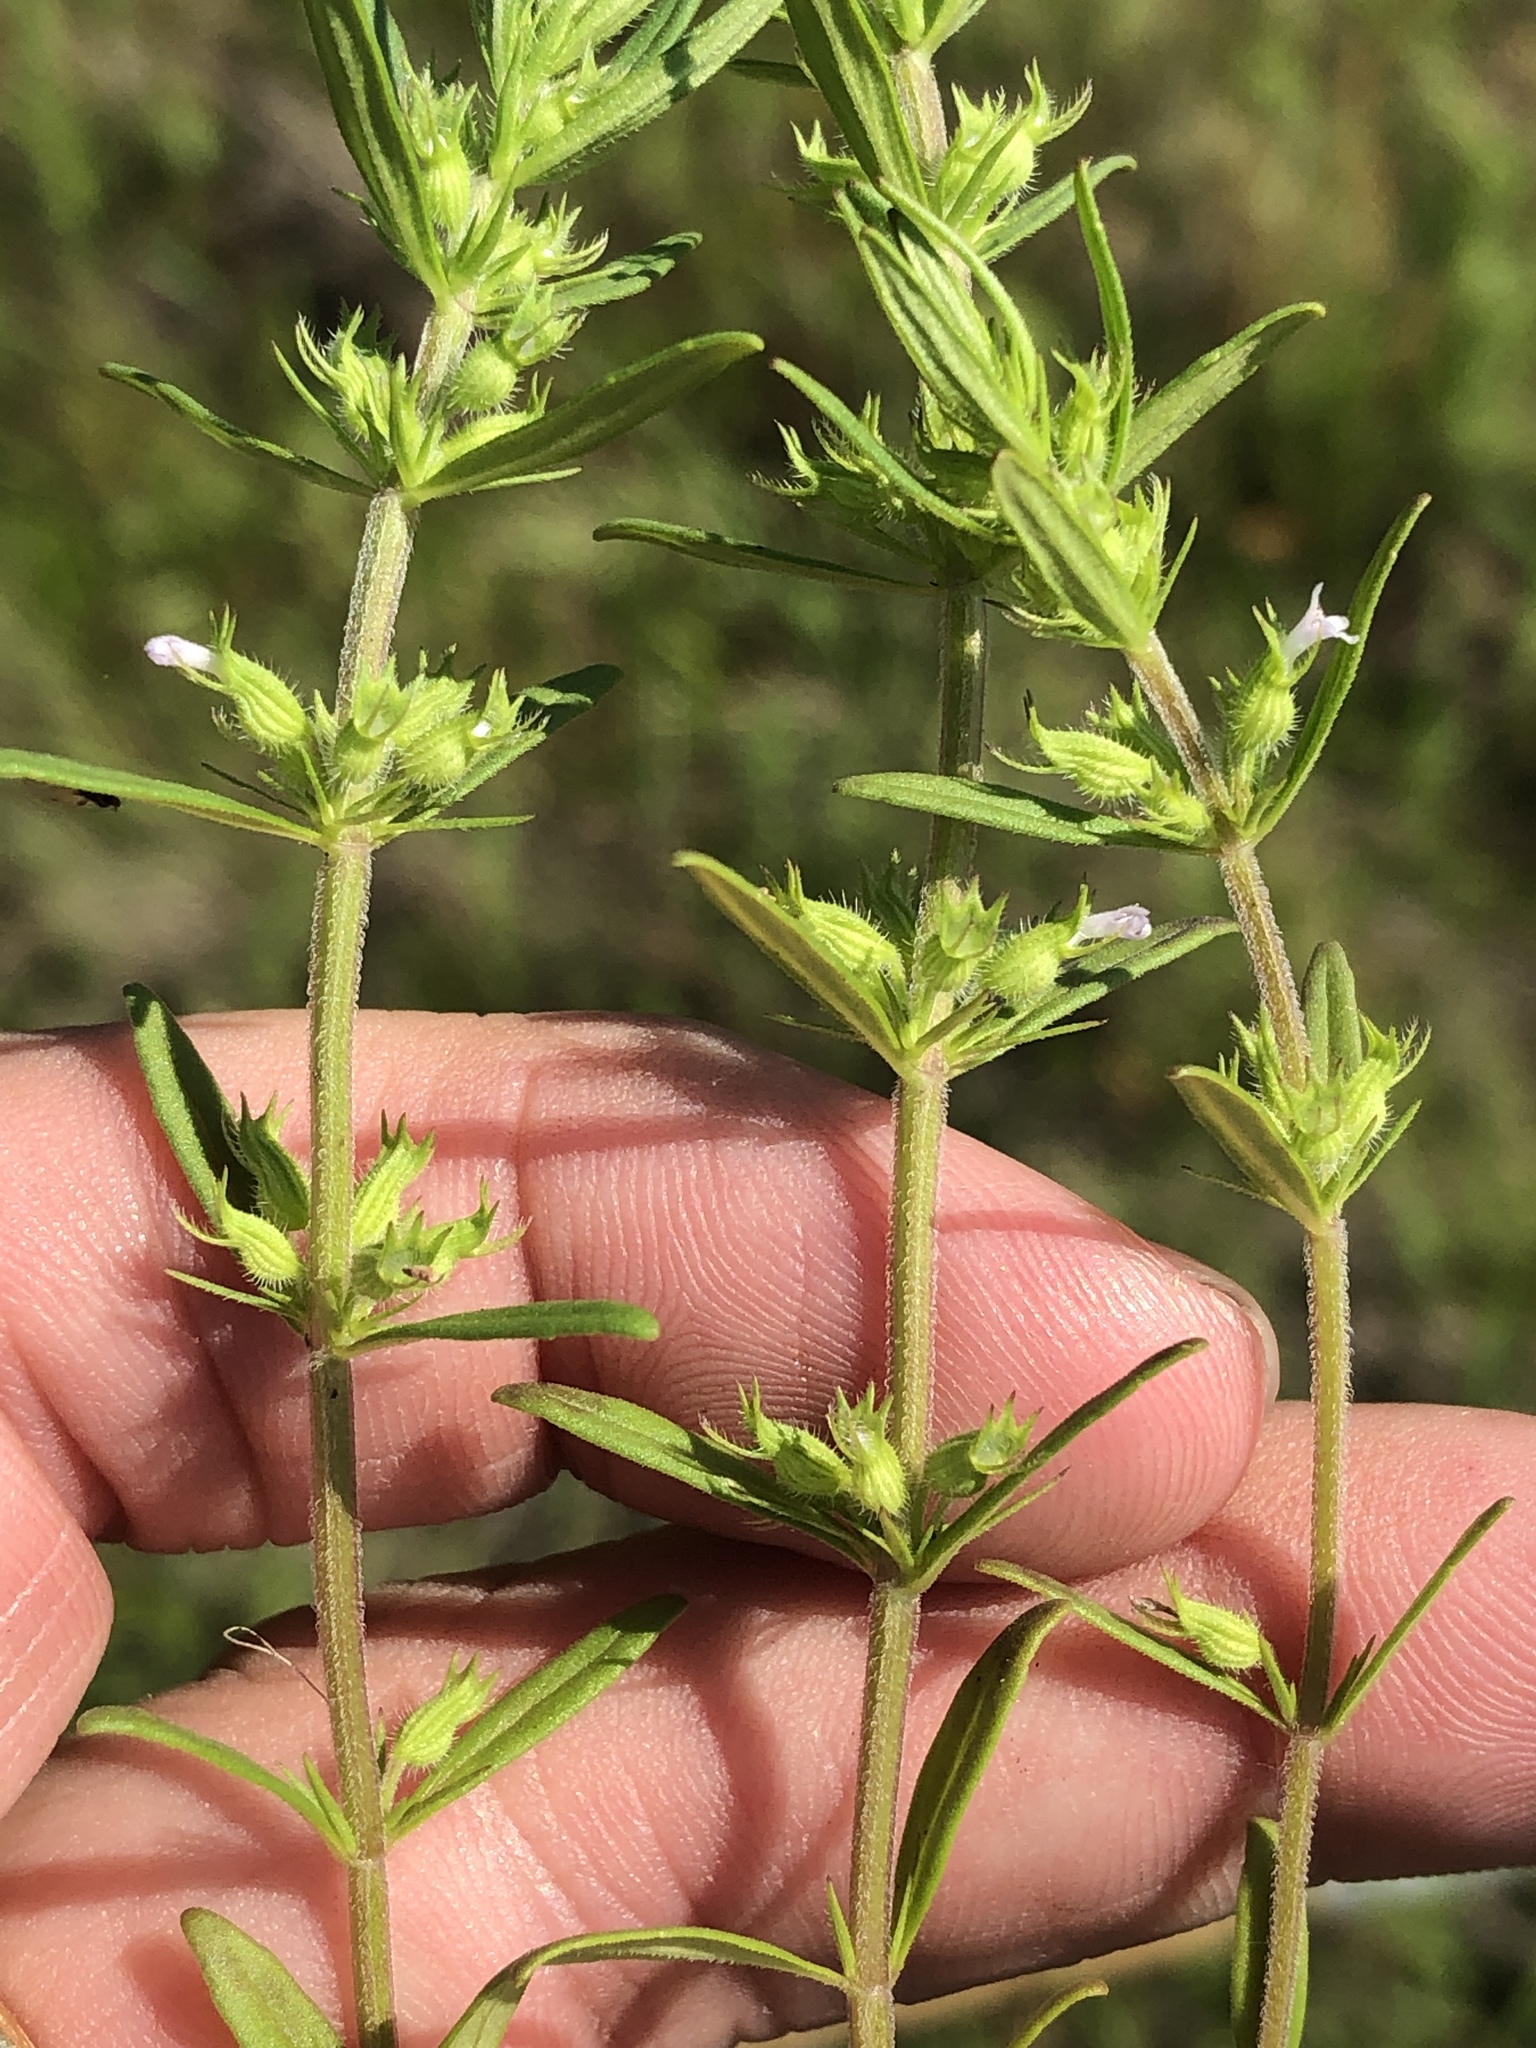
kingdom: Plantae
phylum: Tracheophyta
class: Magnoliopsida
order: Lamiales
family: Lamiaceae
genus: Hedeoma
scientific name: Hedeoma hispida
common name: Mock pennyroyal
